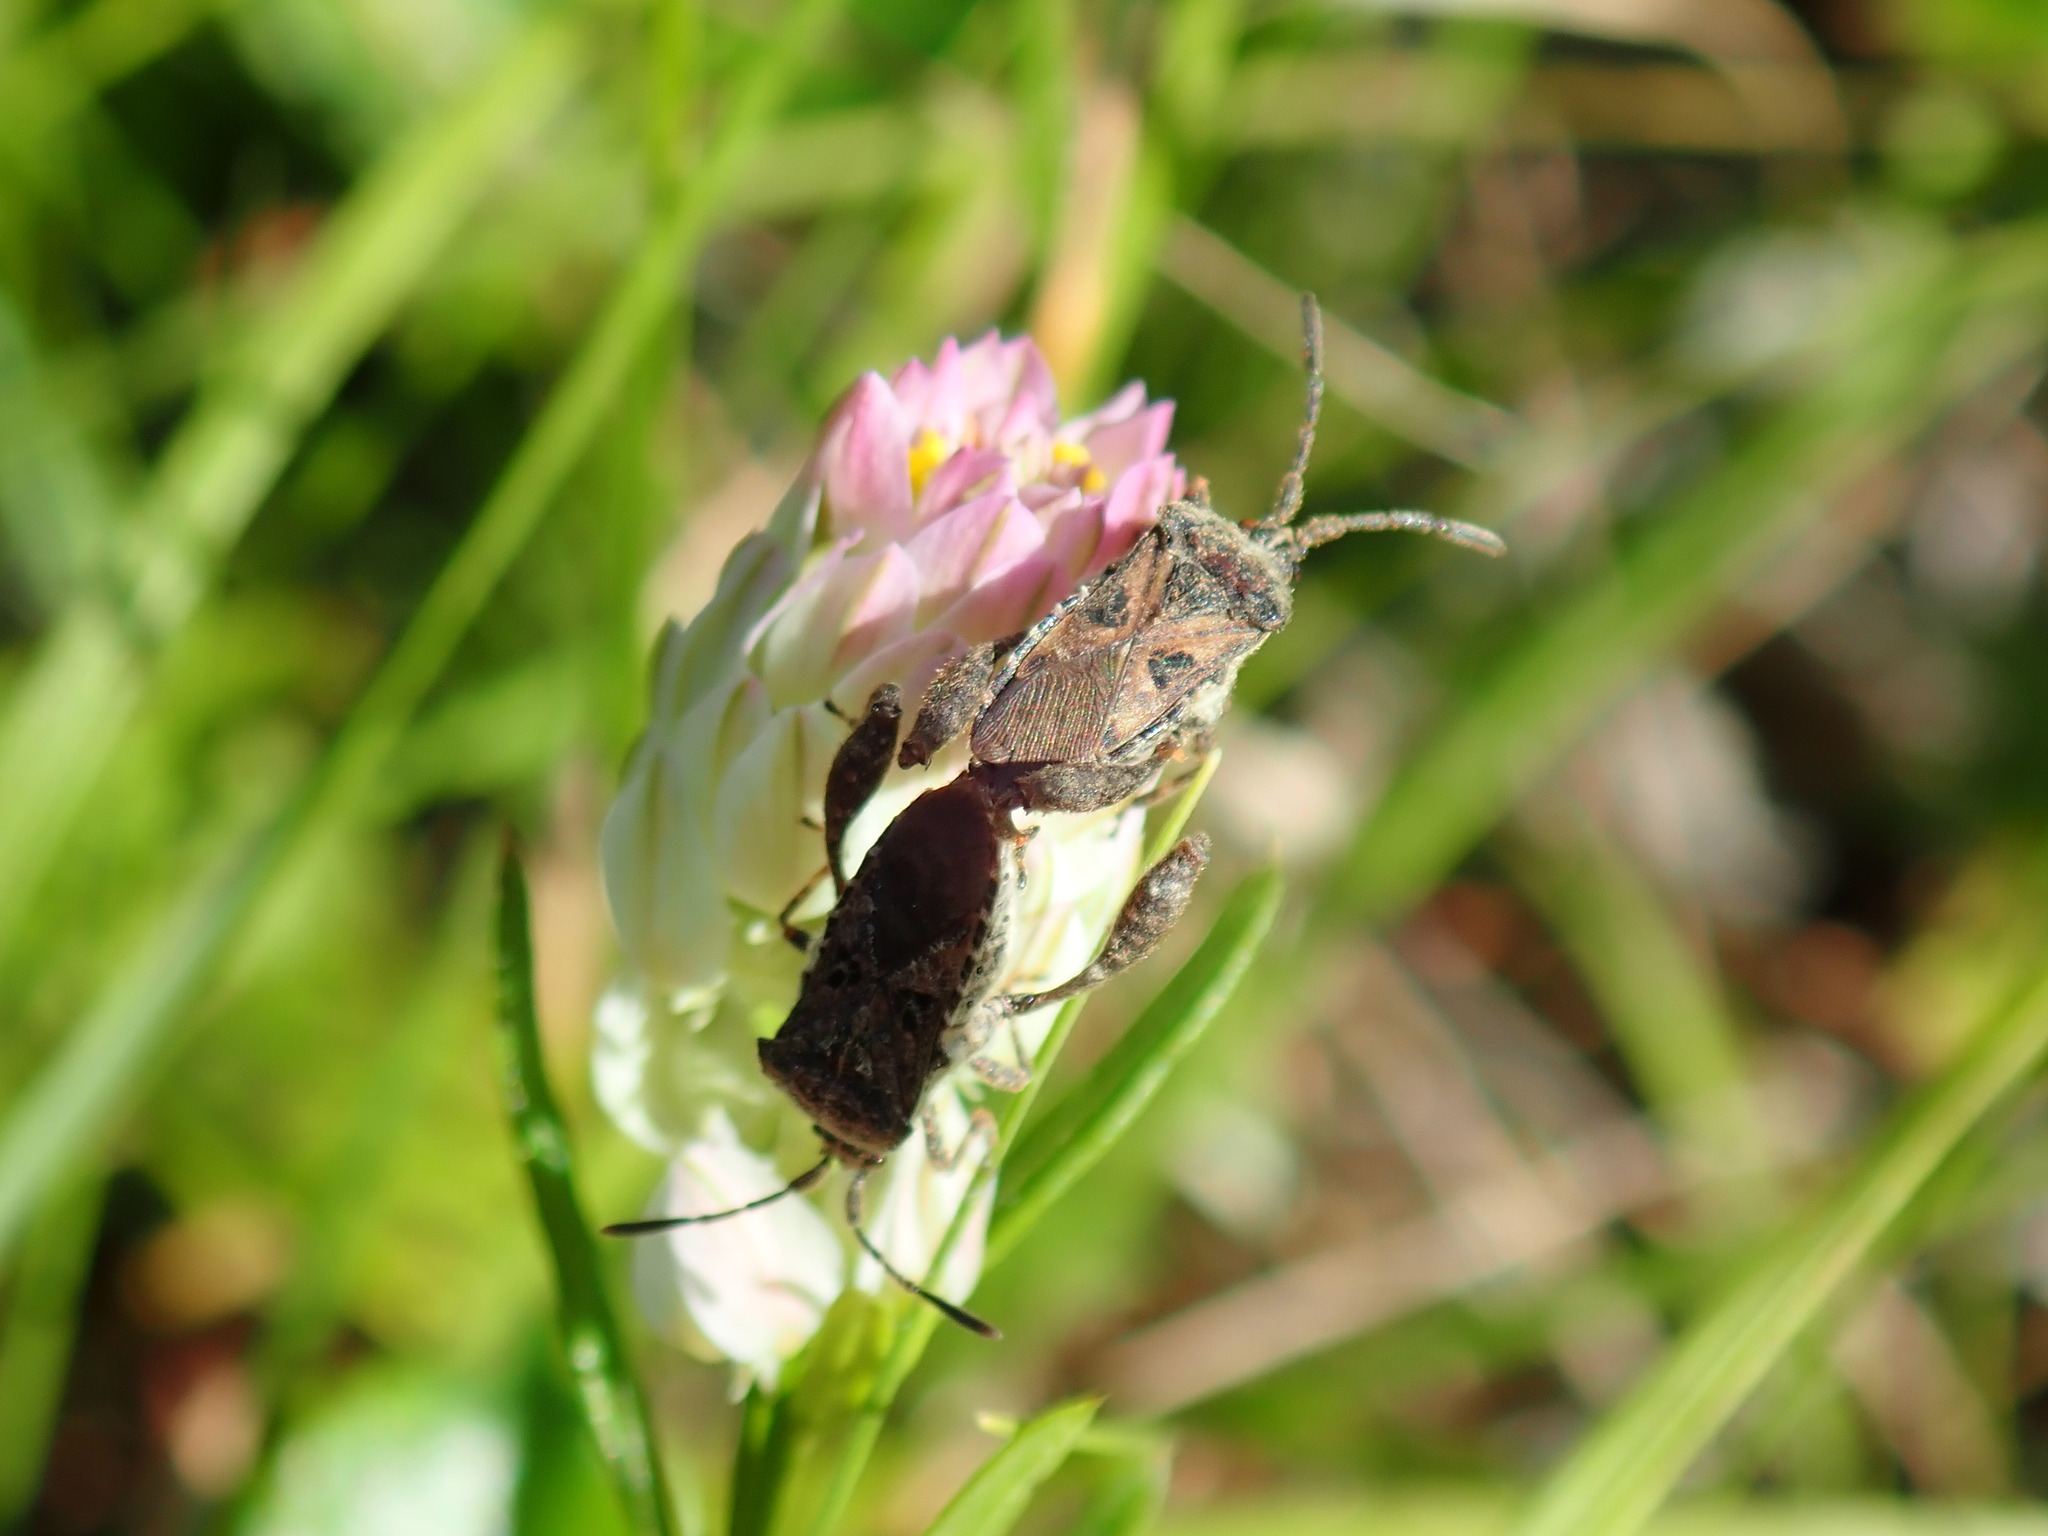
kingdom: Animalia
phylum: Arthropoda
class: Insecta
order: Hemiptera
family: Coreidae
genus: Merocoris
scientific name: Merocoris distinctus
